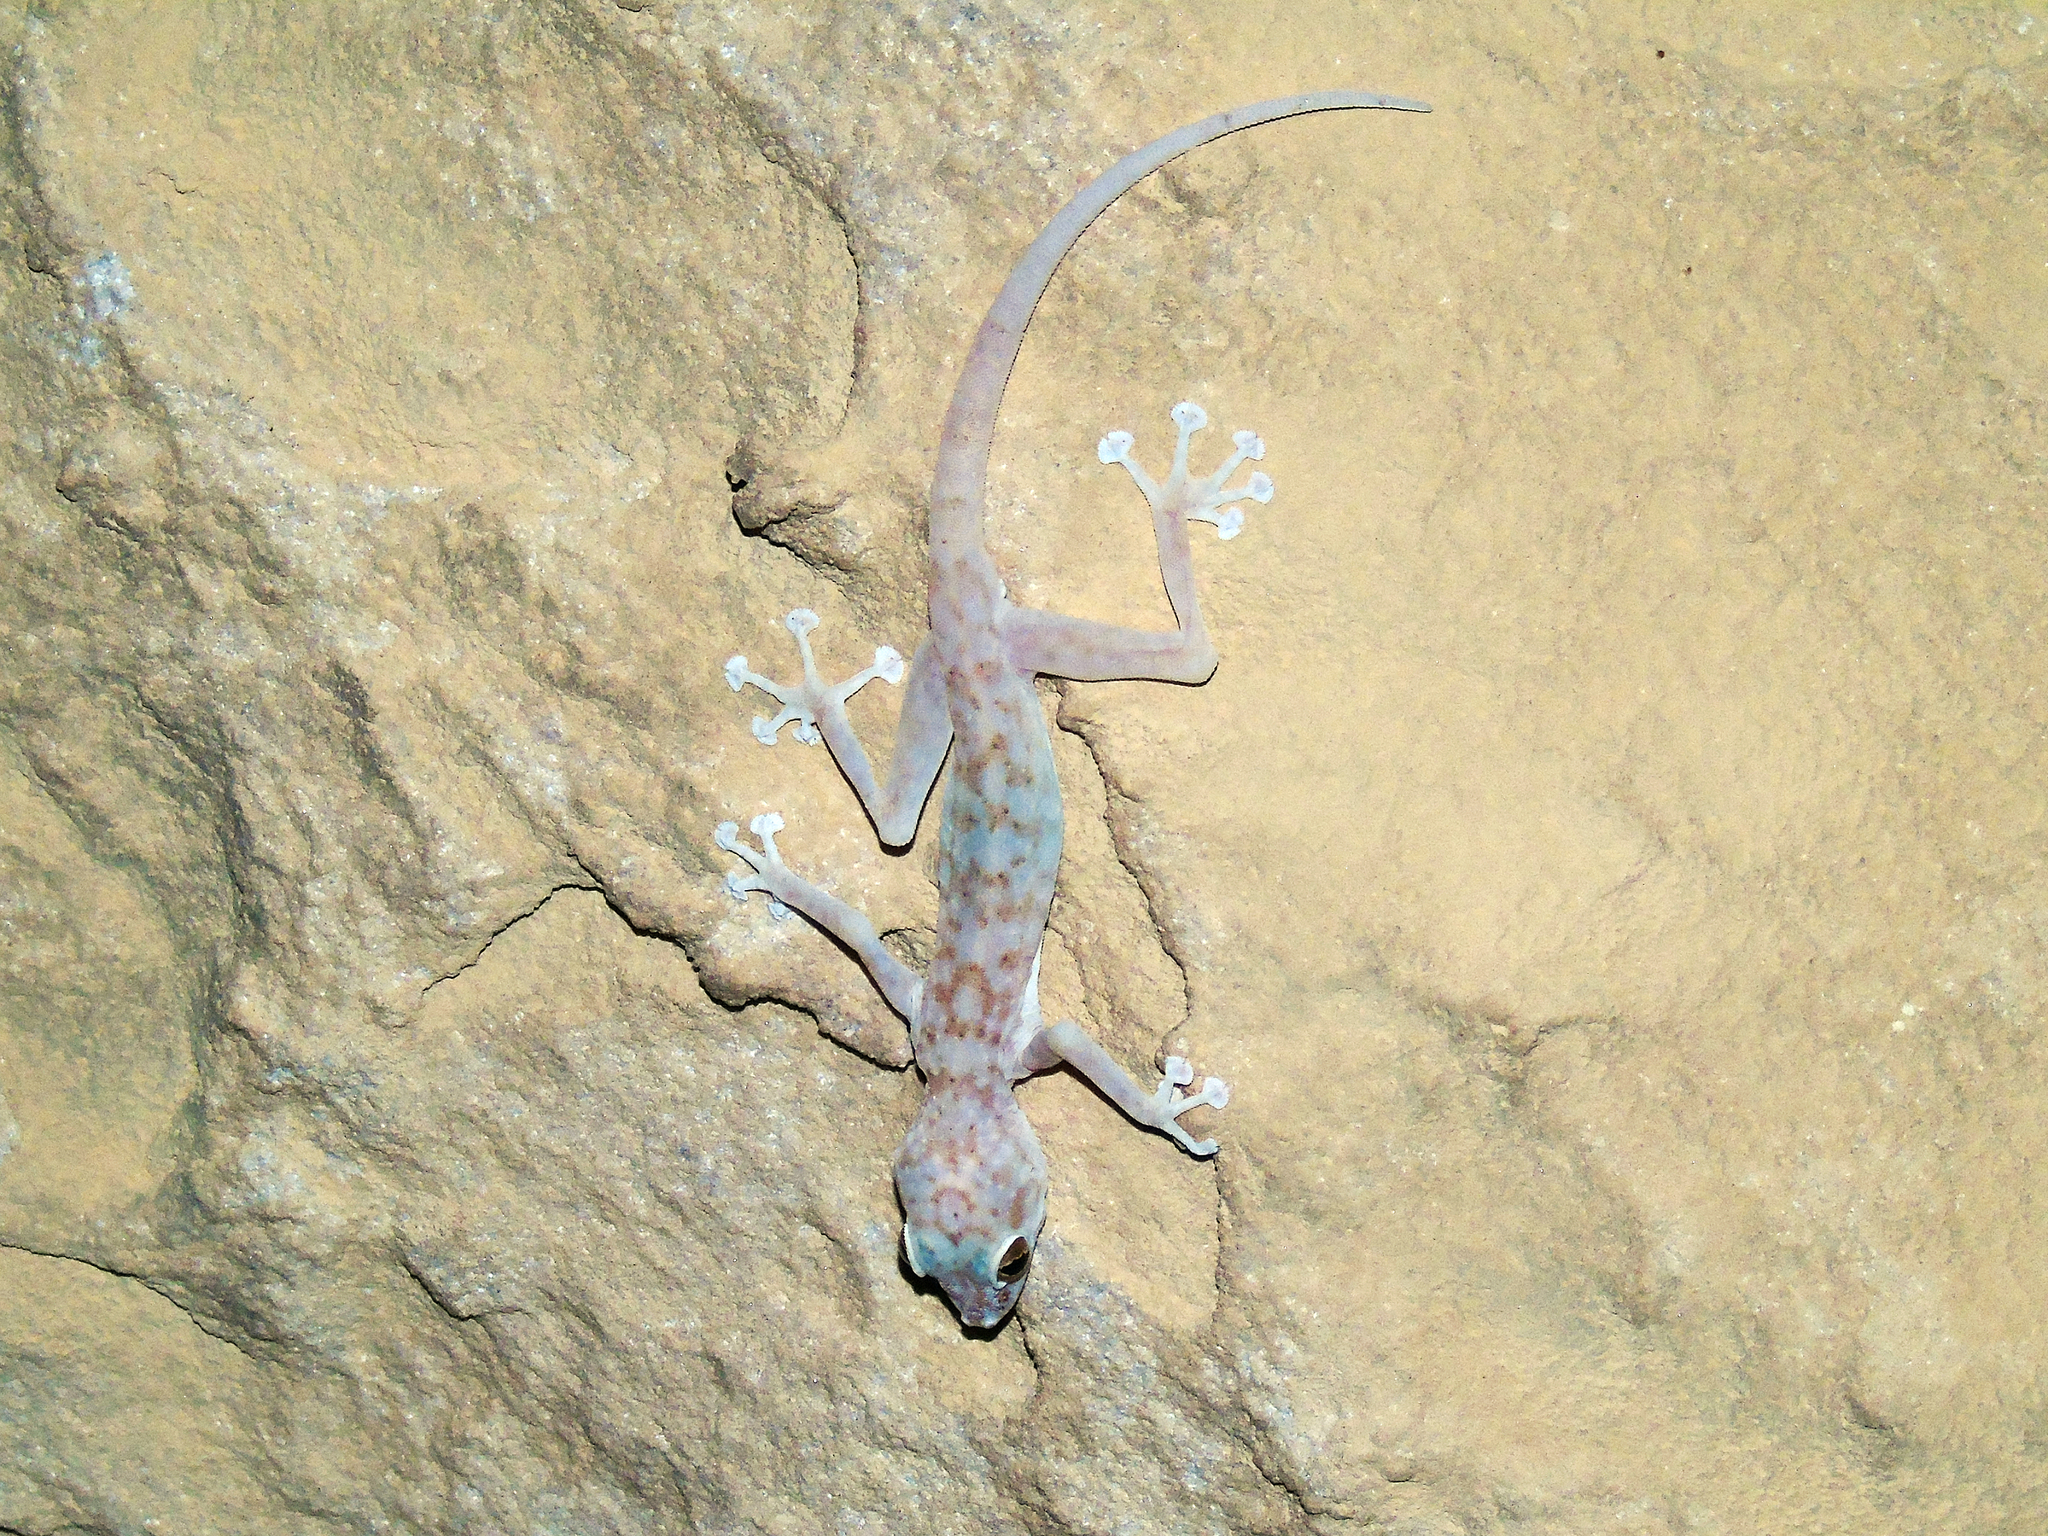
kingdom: Animalia
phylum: Chordata
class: Squamata
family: Phyllodactylidae
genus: Ptyodactylus
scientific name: Ptyodactylus hasselquistii
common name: Hasselquist’s fan-footed gecko
